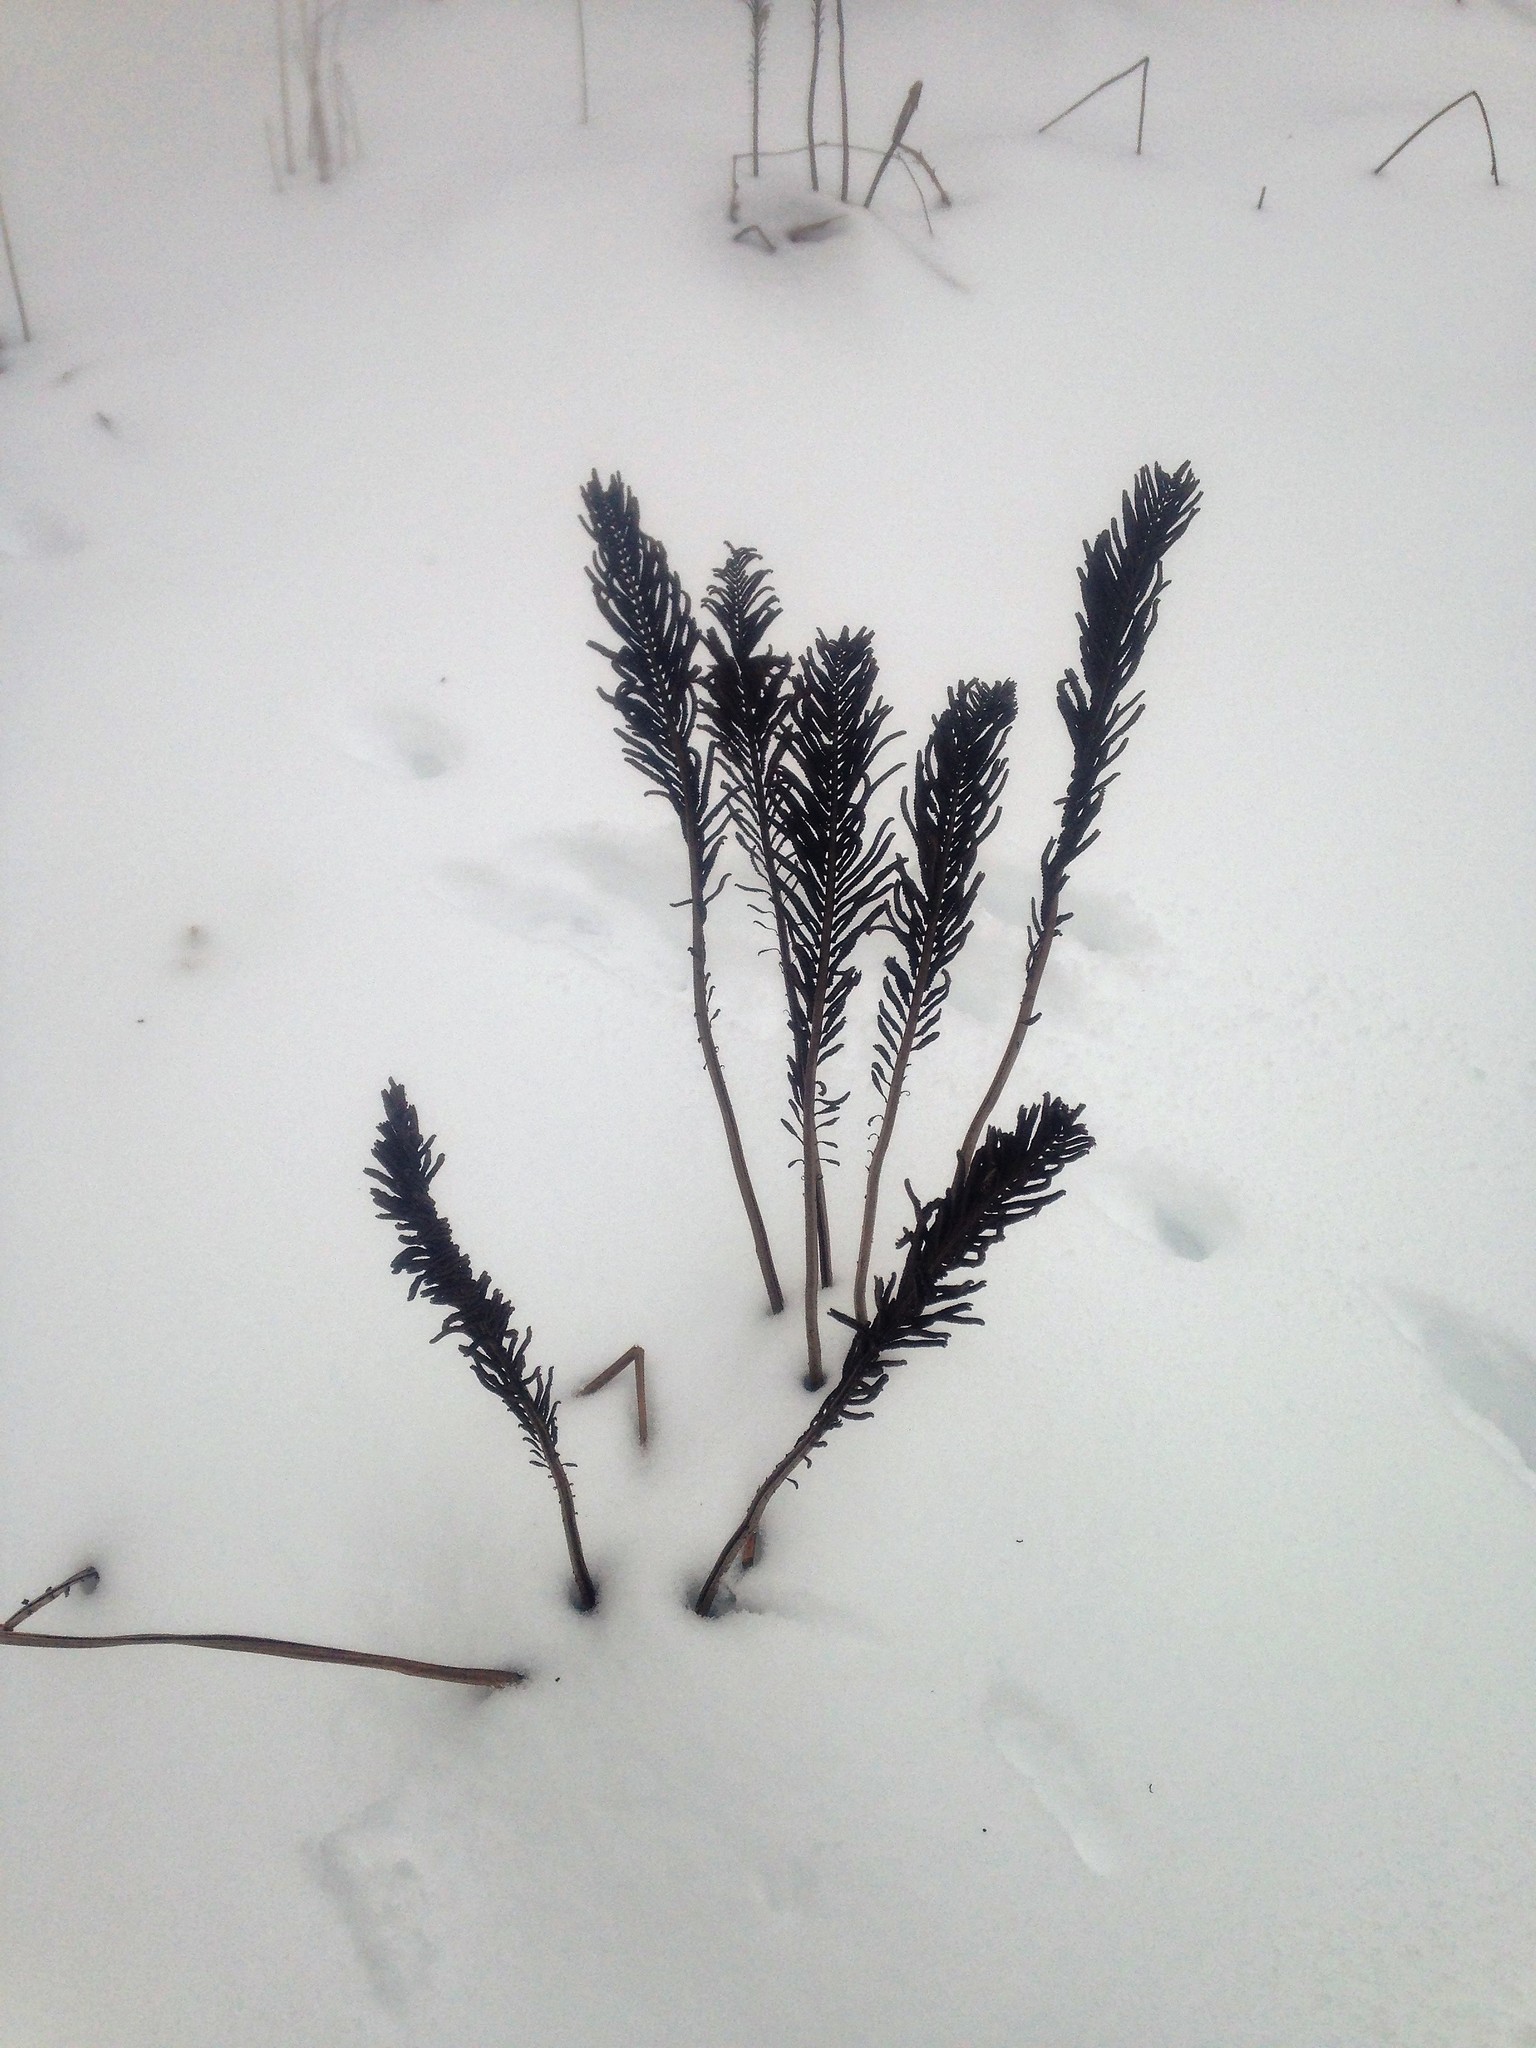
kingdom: Plantae
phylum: Tracheophyta
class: Polypodiopsida
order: Polypodiales
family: Onocleaceae
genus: Matteuccia
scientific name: Matteuccia struthiopteris
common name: Ostrich fern
